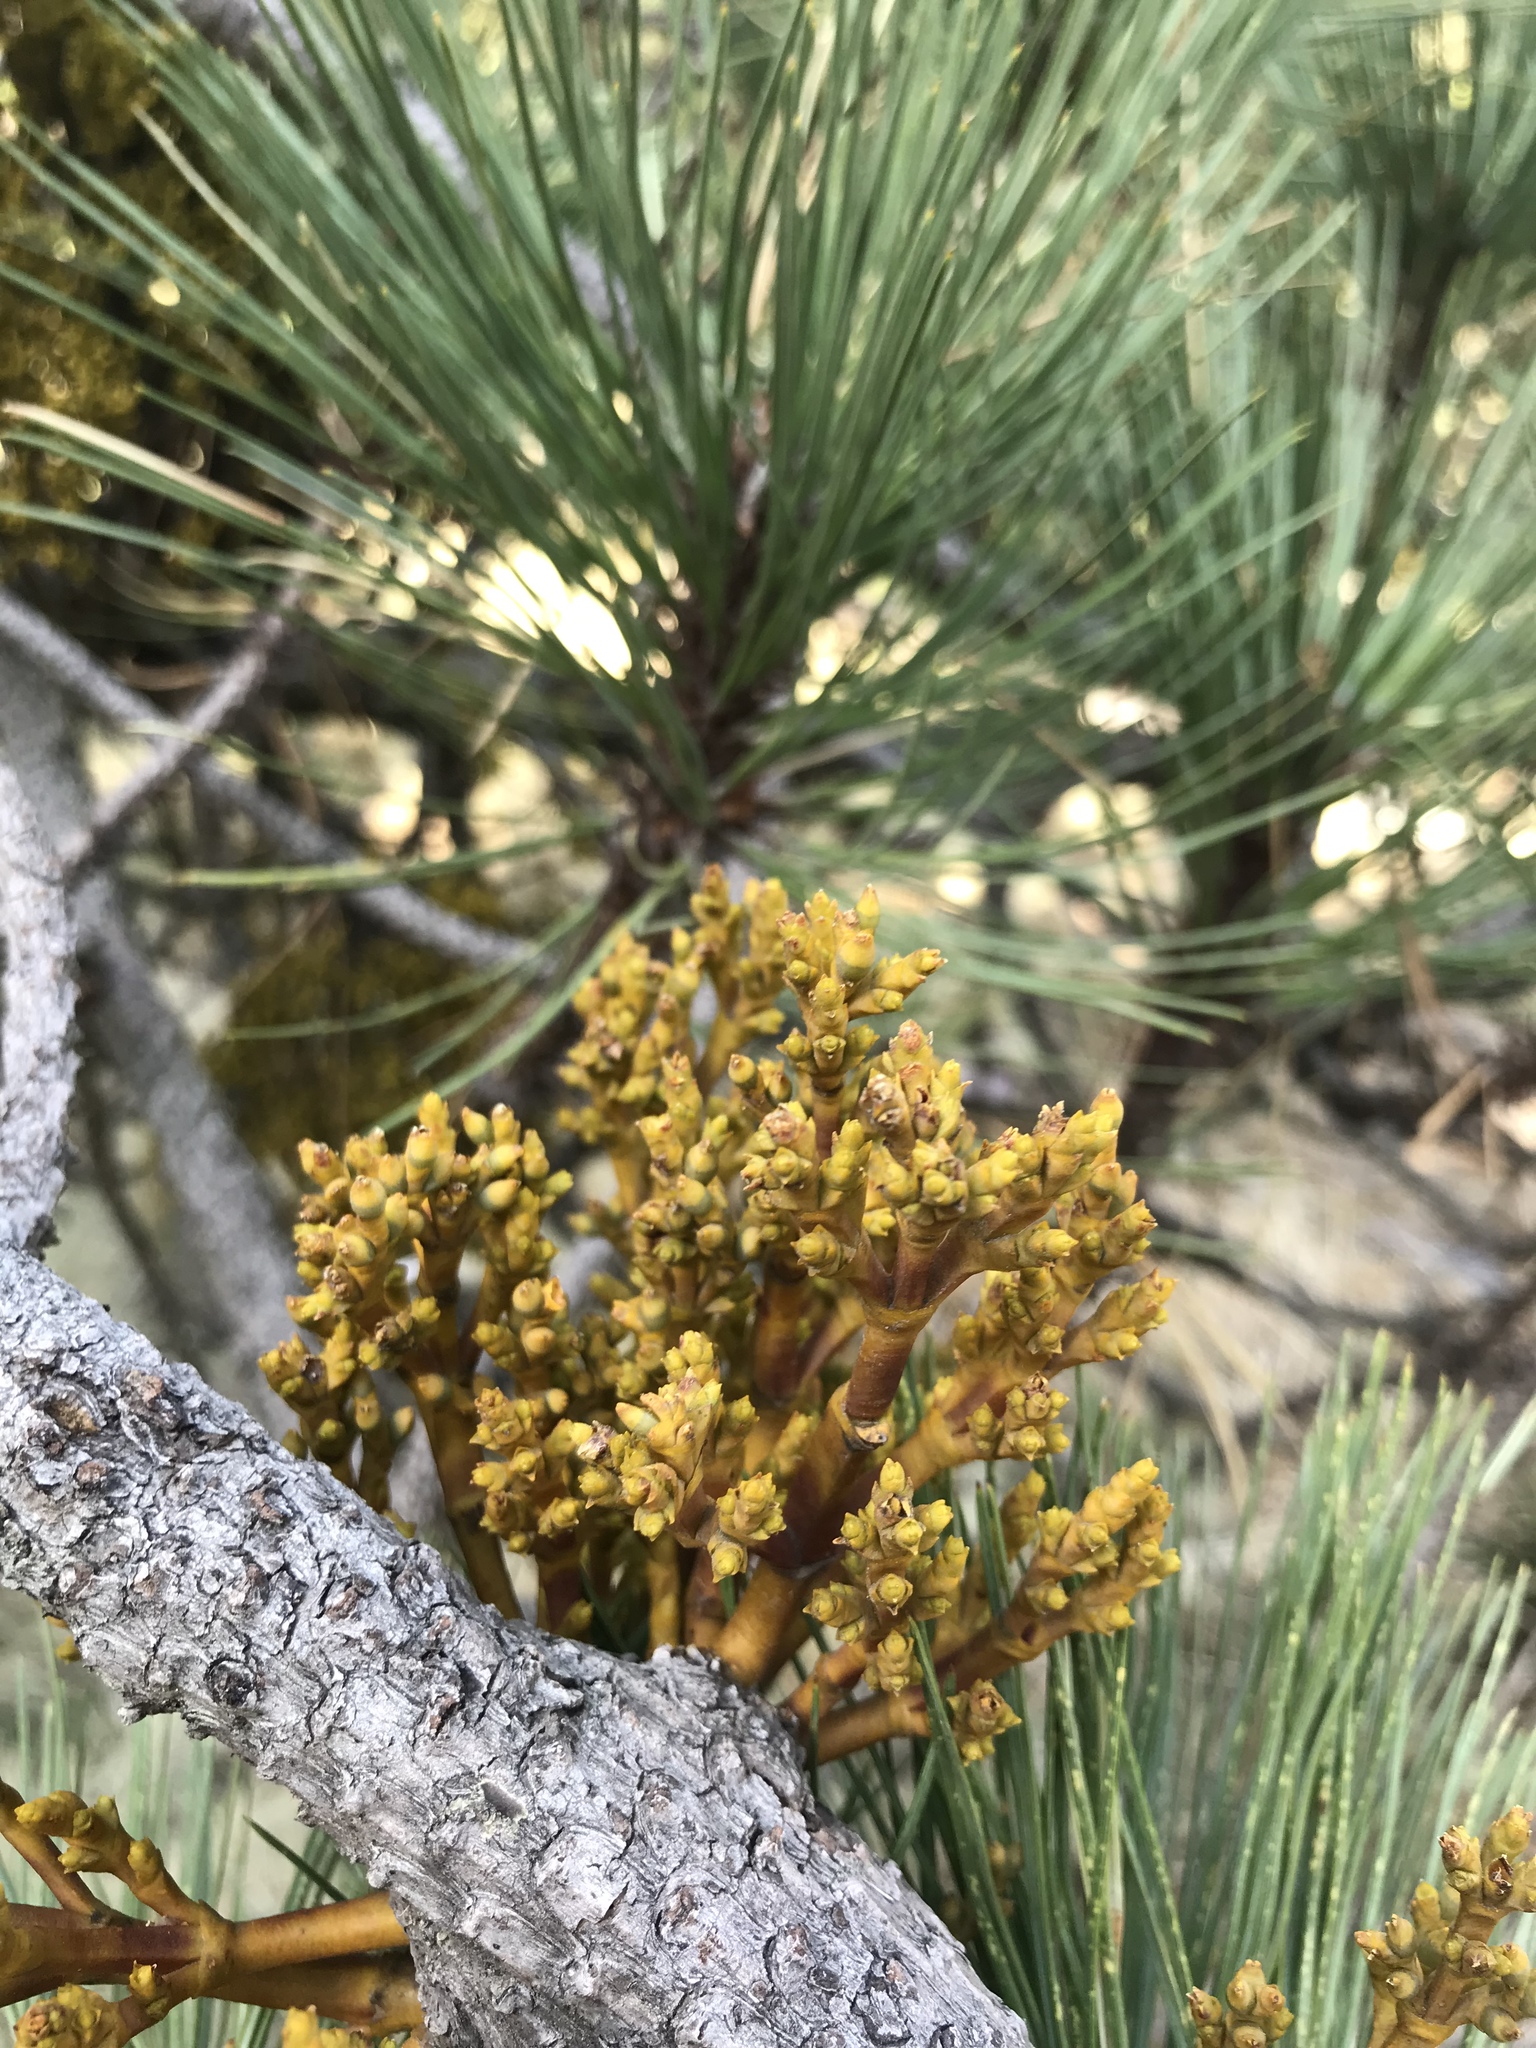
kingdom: Plantae
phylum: Tracheophyta
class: Magnoliopsida
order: Santalales
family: Viscaceae
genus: Arceuthobium
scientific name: Arceuthobium globosum
